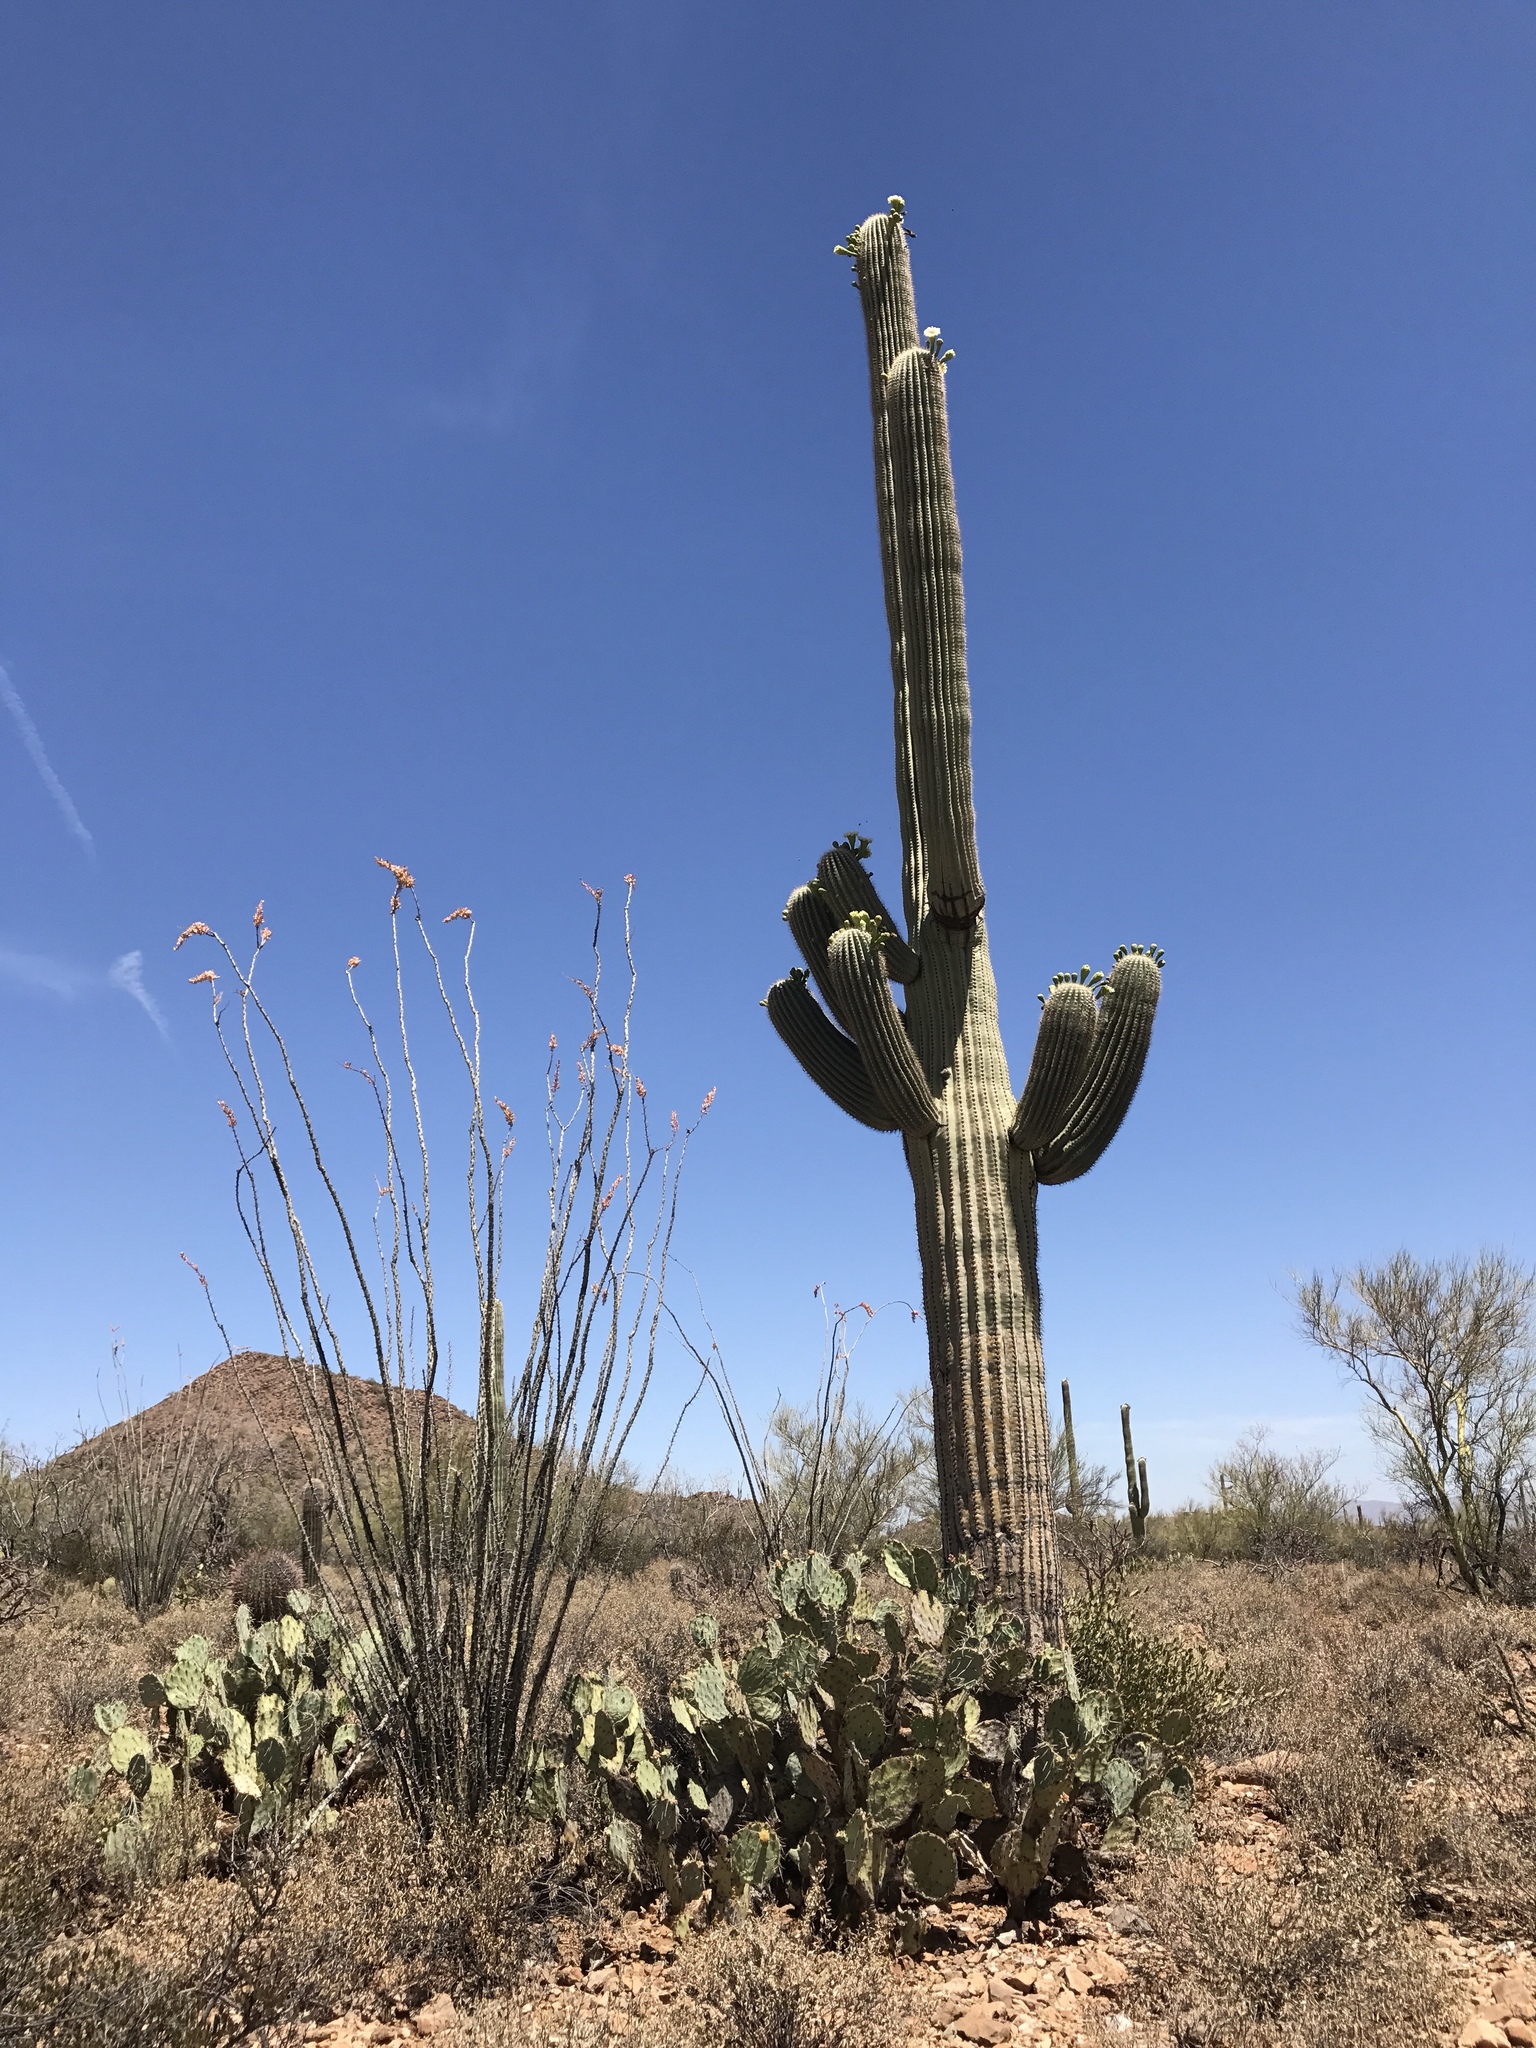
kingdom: Plantae
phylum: Tracheophyta
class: Magnoliopsida
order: Caryophyllales
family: Cactaceae
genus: Carnegiea
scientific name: Carnegiea gigantea
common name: Saguaro
